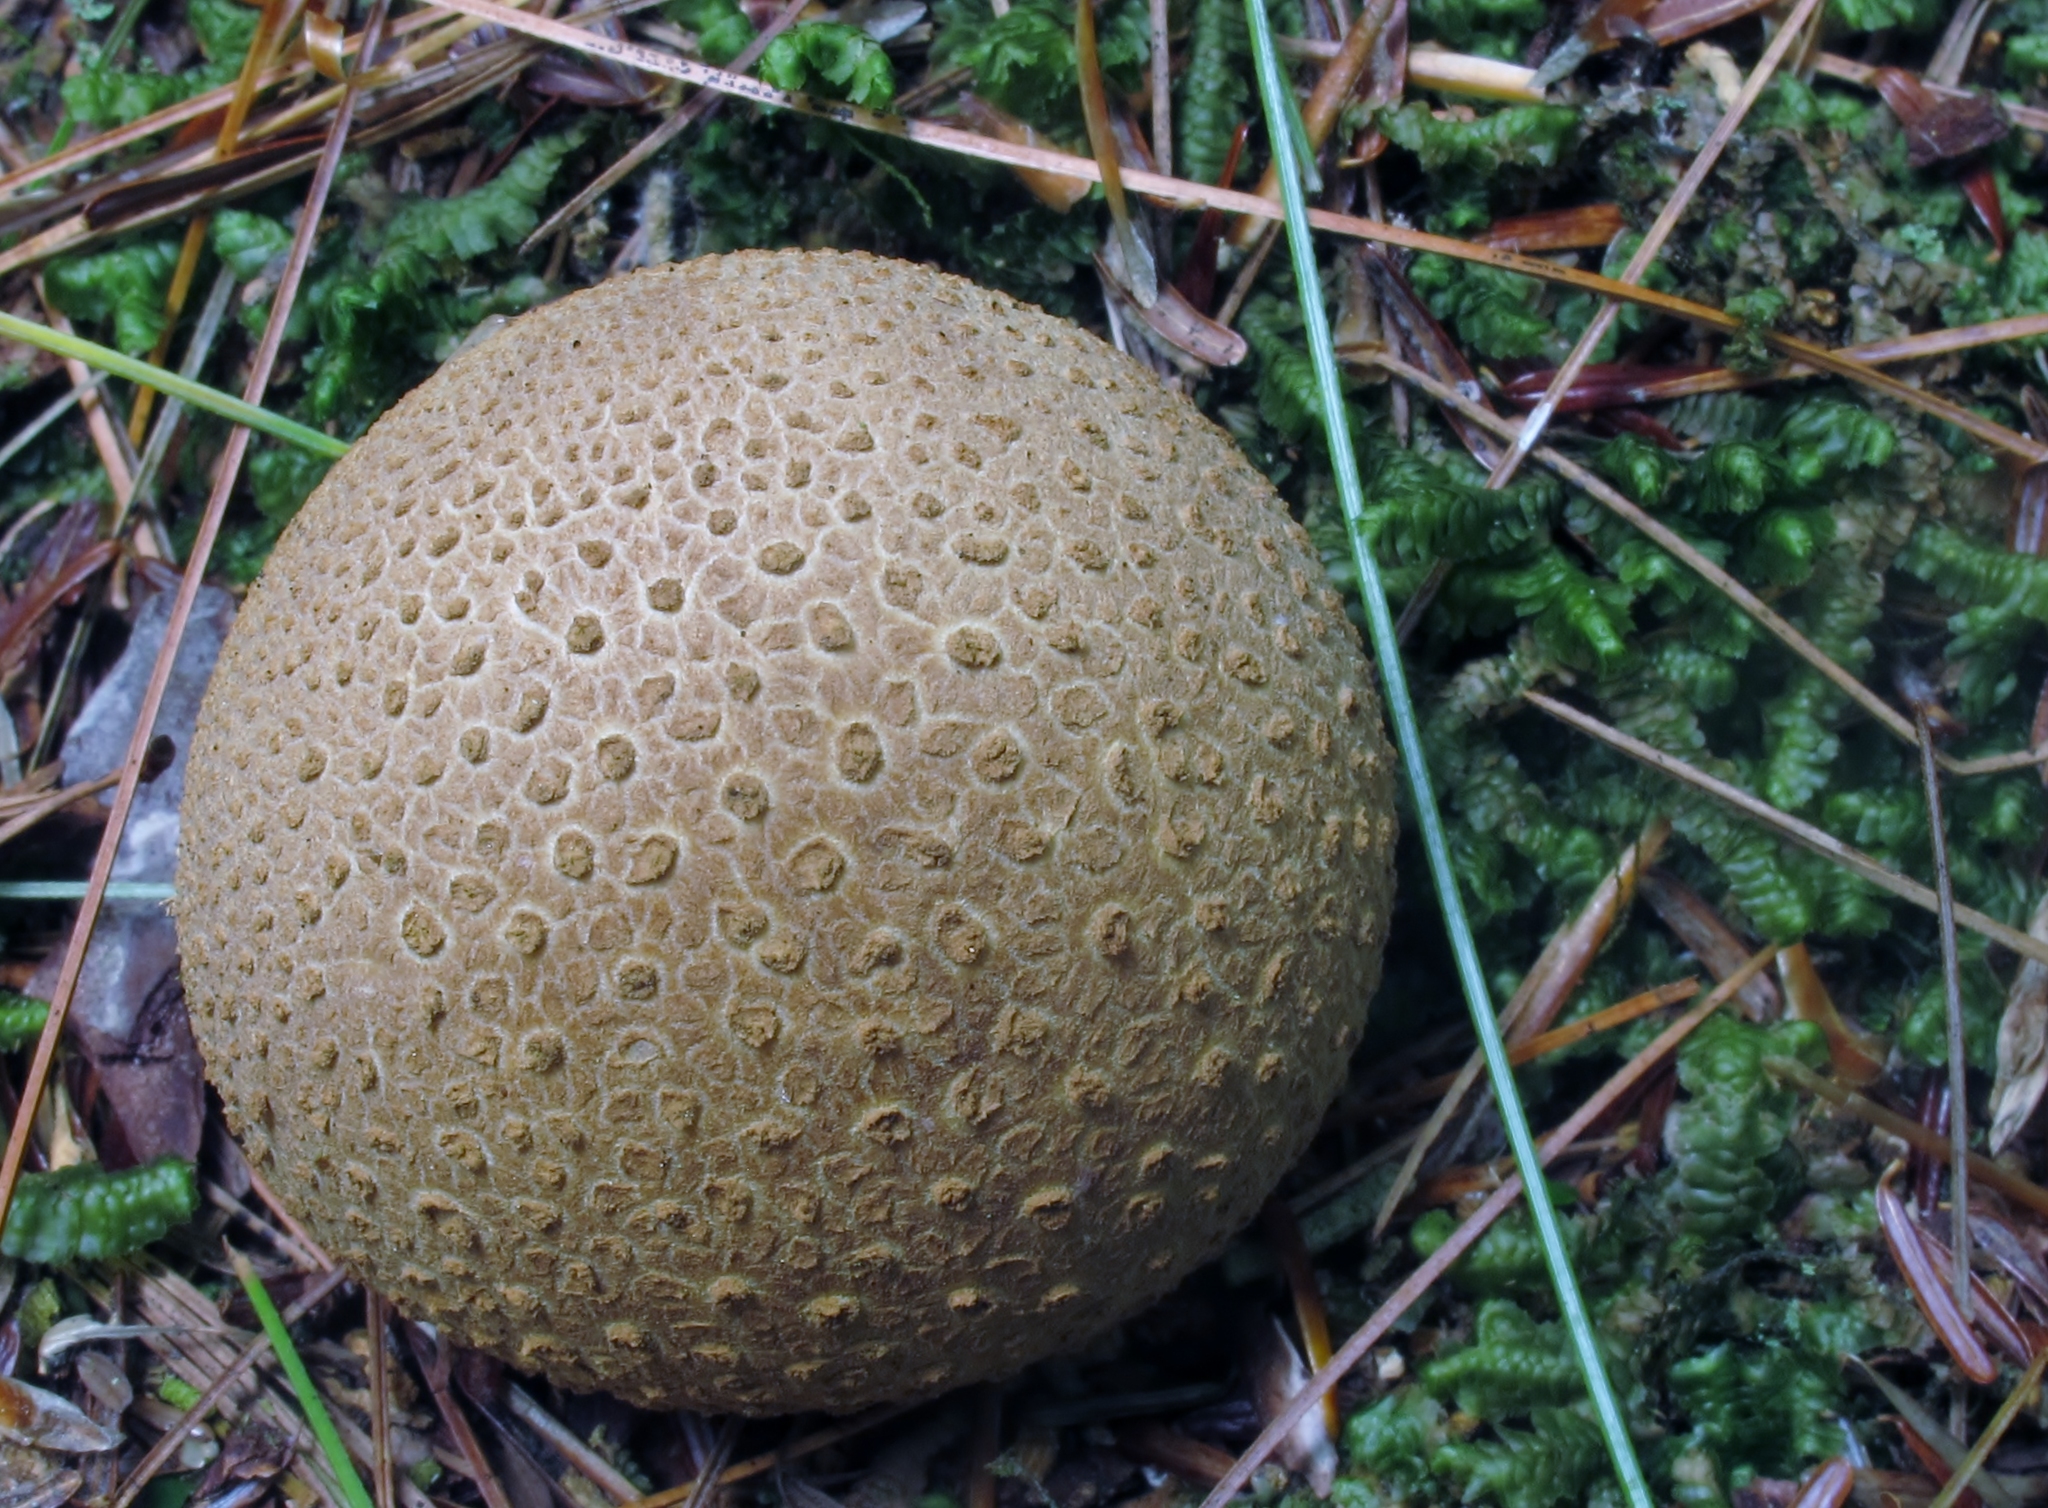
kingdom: Fungi
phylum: Basidiomycota
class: Agaricomycetes
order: Boletales
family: Sclerodermataceae
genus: Scleroderma
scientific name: Scleroderma citrinum
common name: Common earthball
